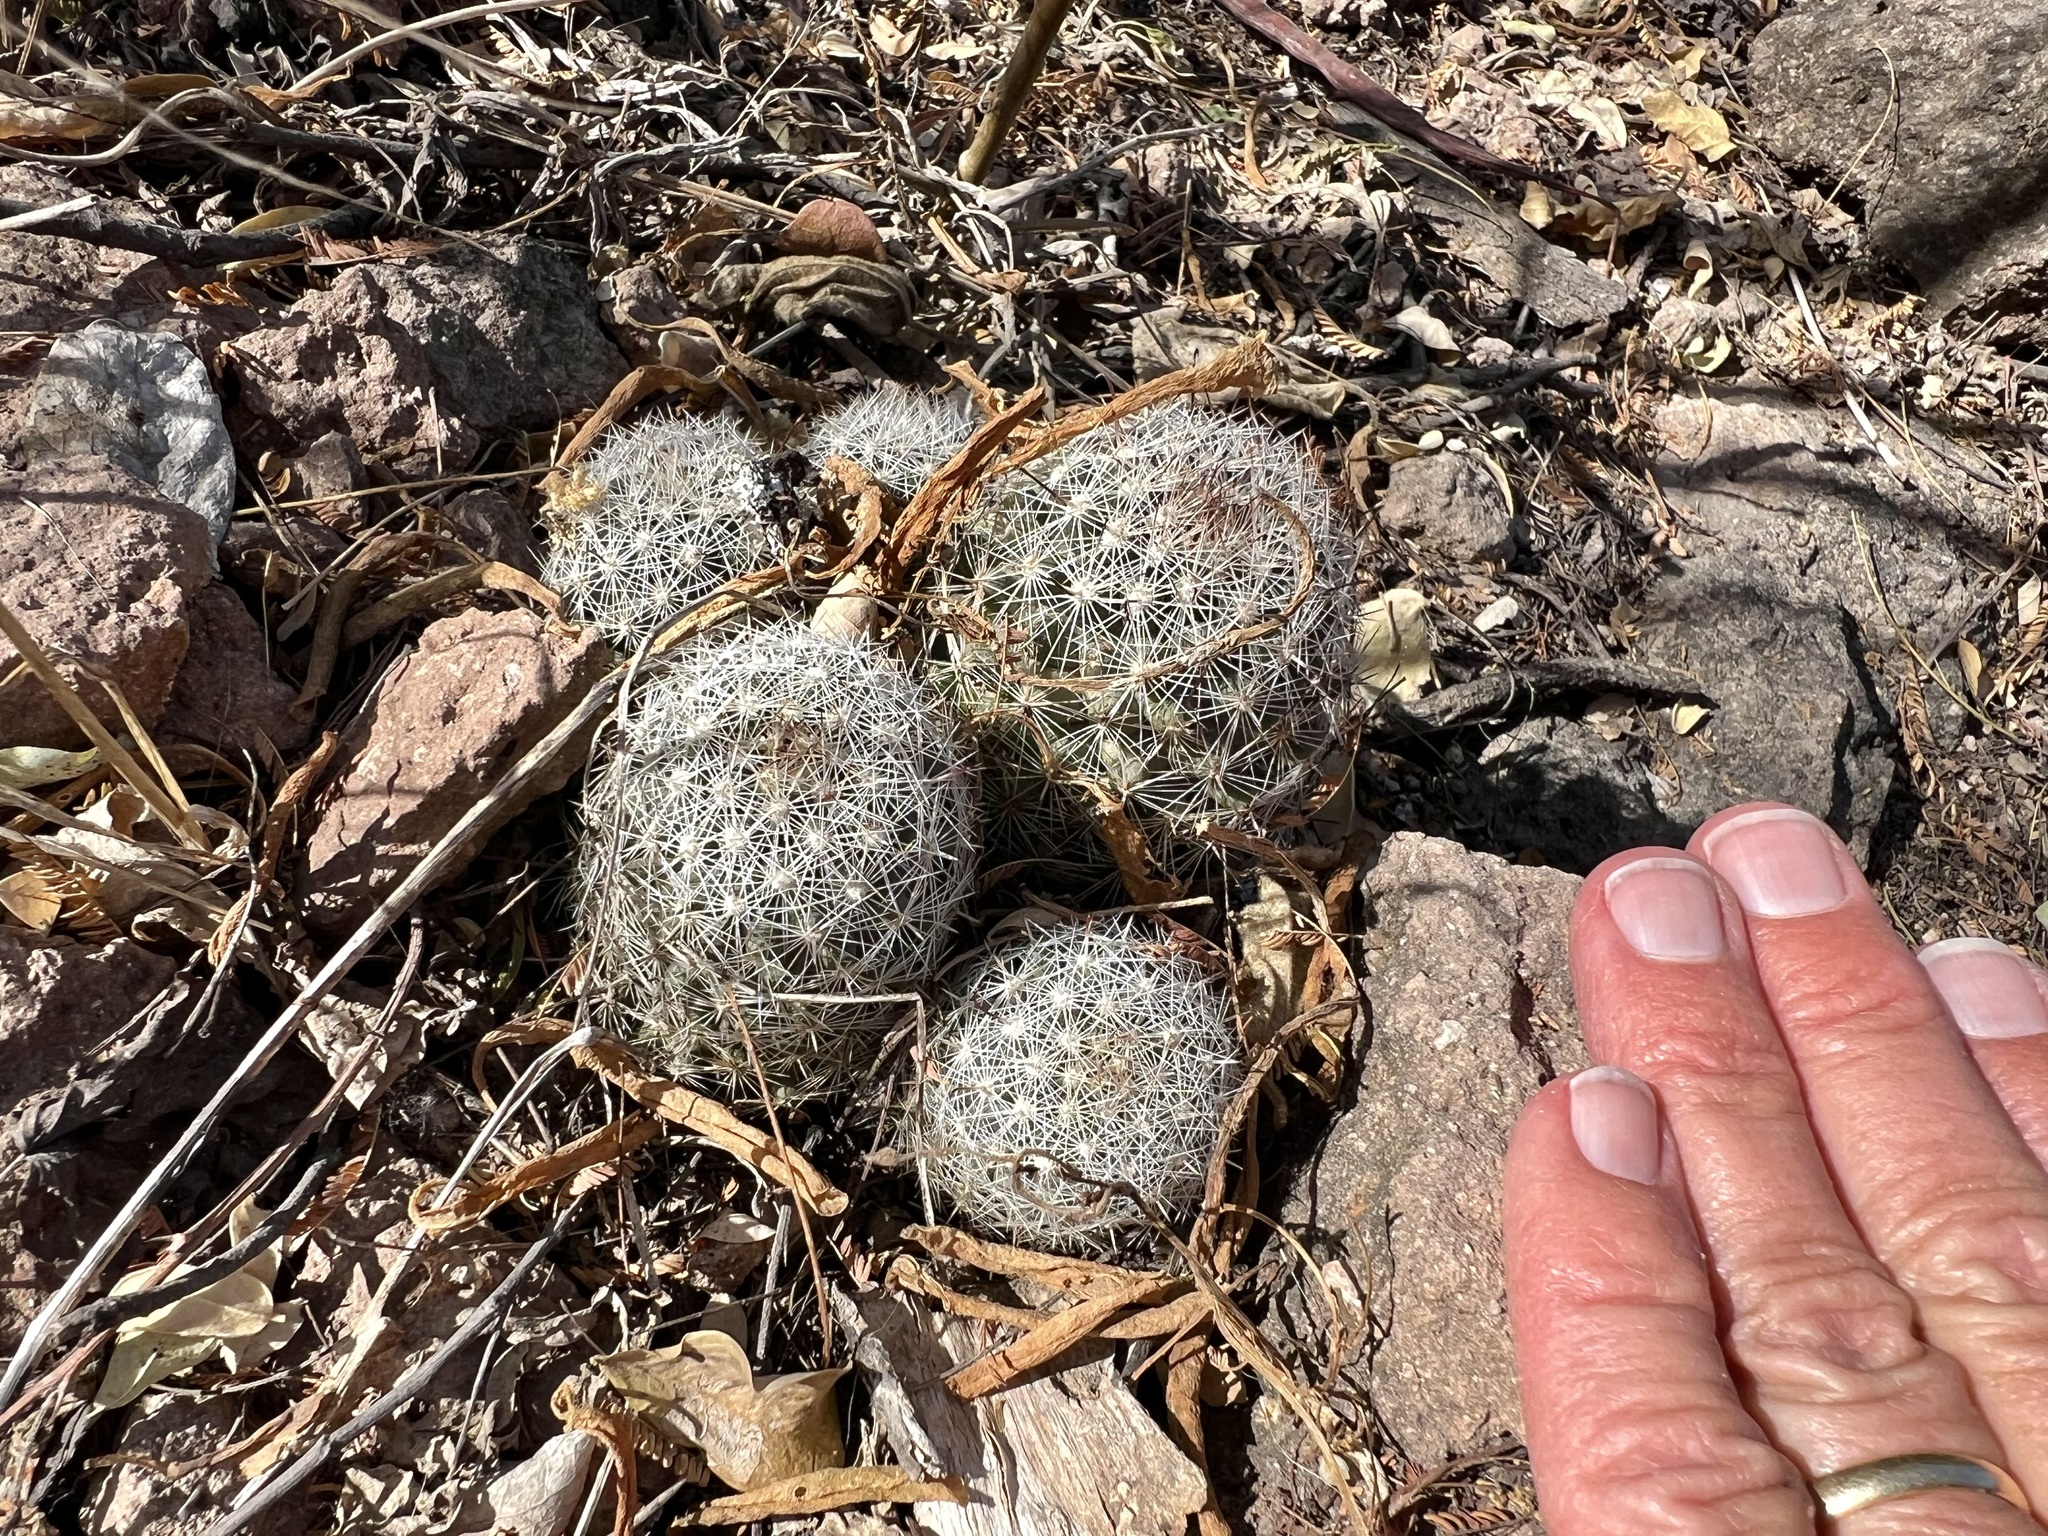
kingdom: Plantae
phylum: Tracheophyta
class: Magnoliopsida
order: Caryophyllales
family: Cactaceae
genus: Cochemiea
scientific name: Cochemiea sheldonii
